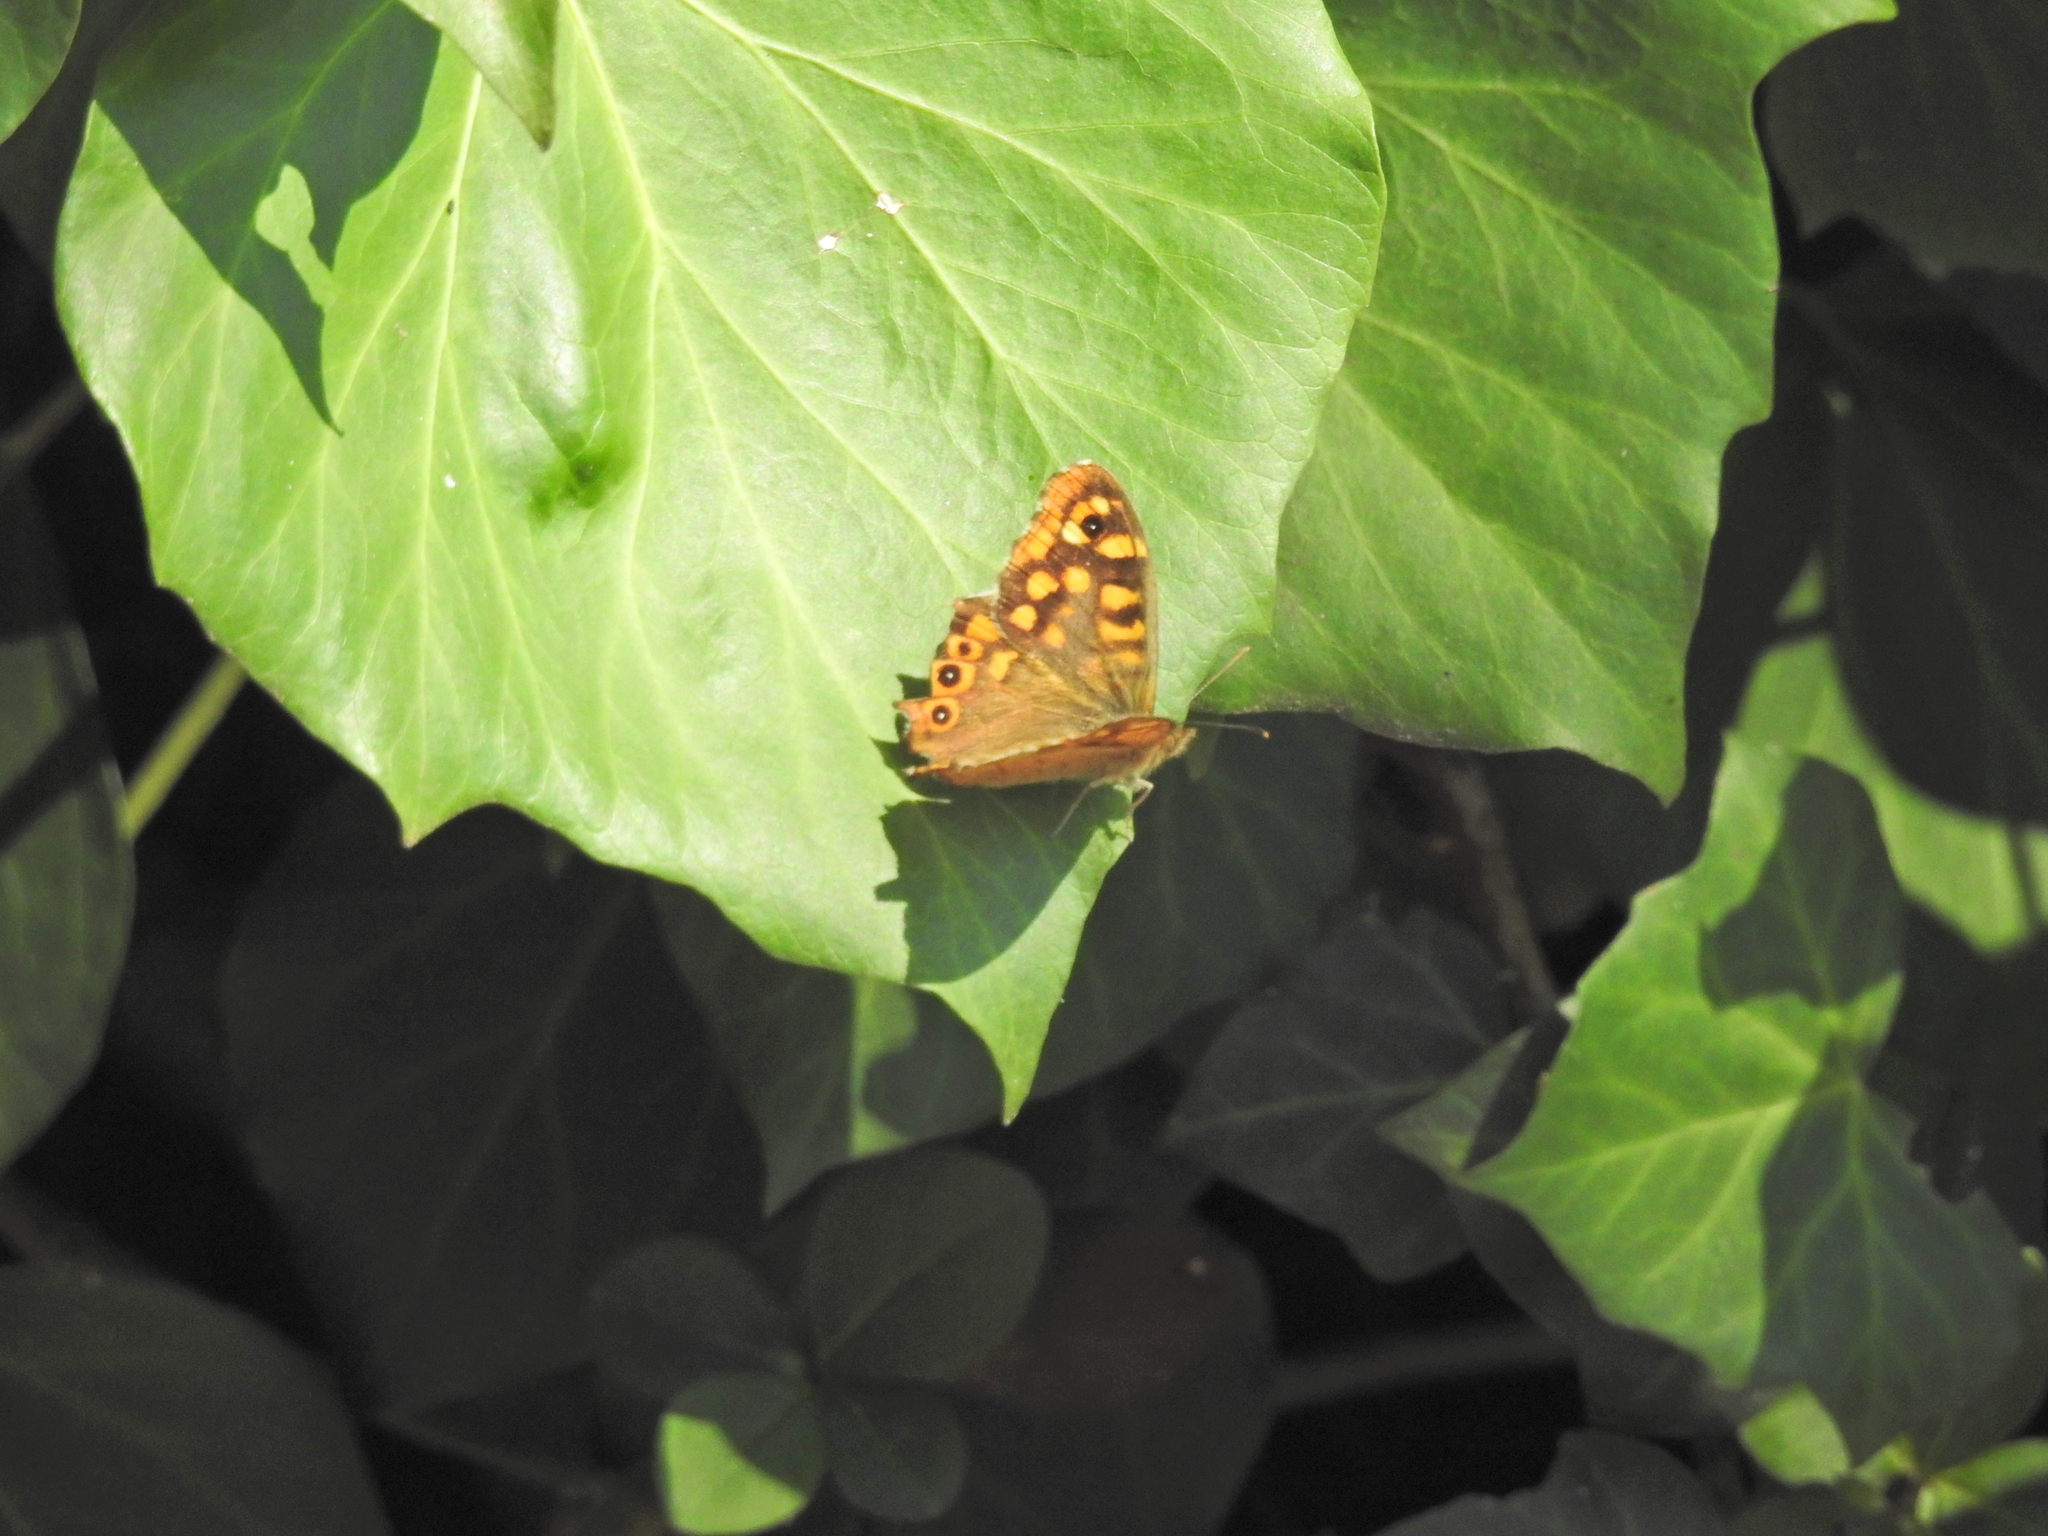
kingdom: Animalia
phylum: Arthropoda
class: Insecta
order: Lepidoptera
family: Nymphalidae
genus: Pararge
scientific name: Pararge aegeria
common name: Speckled wood
